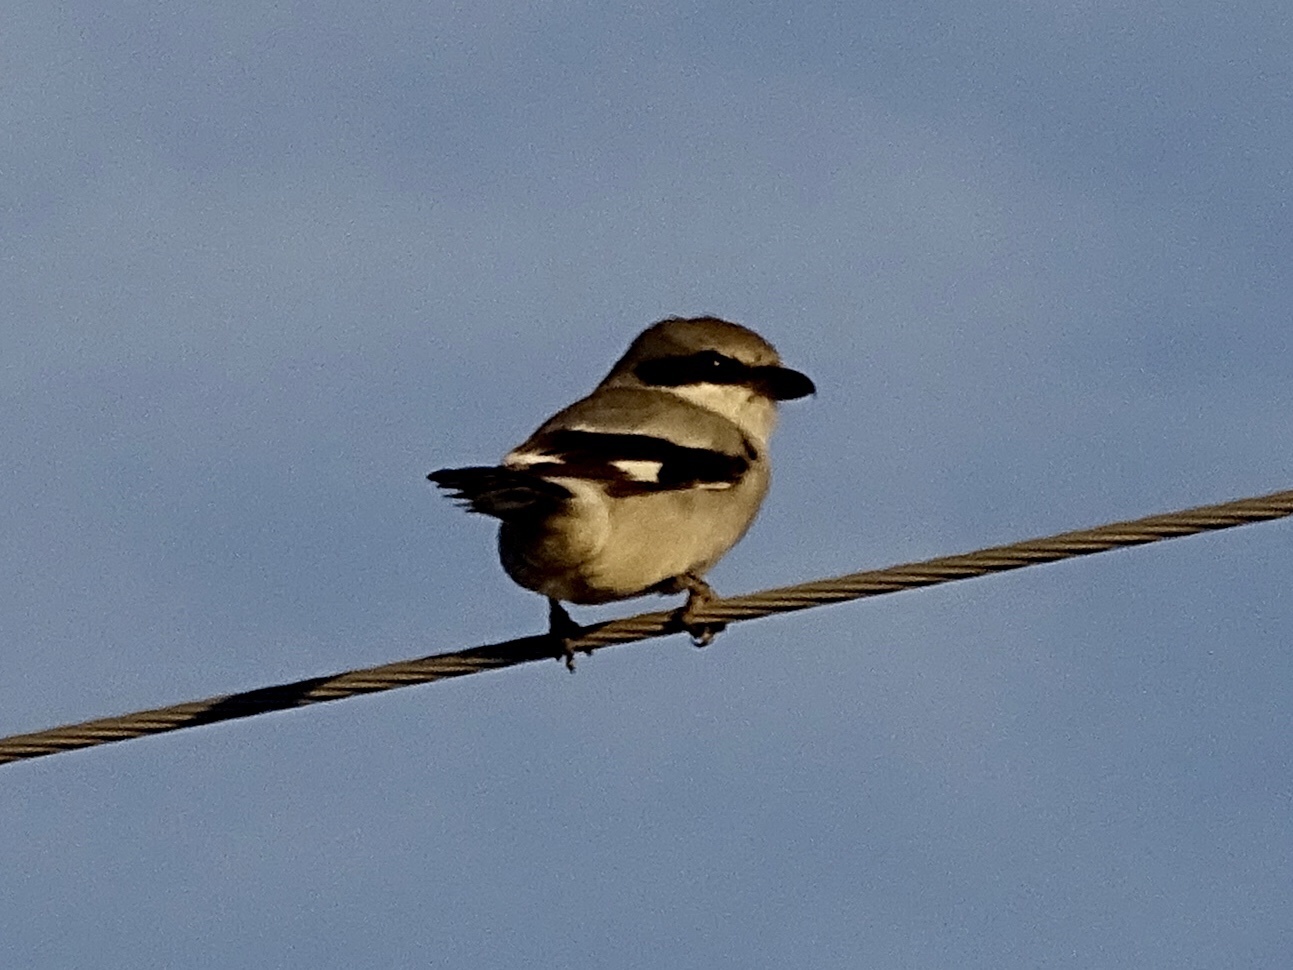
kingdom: Animalia
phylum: Chordata
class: Aves
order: Passeriformes
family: Laniidae
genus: Lanius
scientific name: Lanius ludovicianus
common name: Loggerhead shrike
